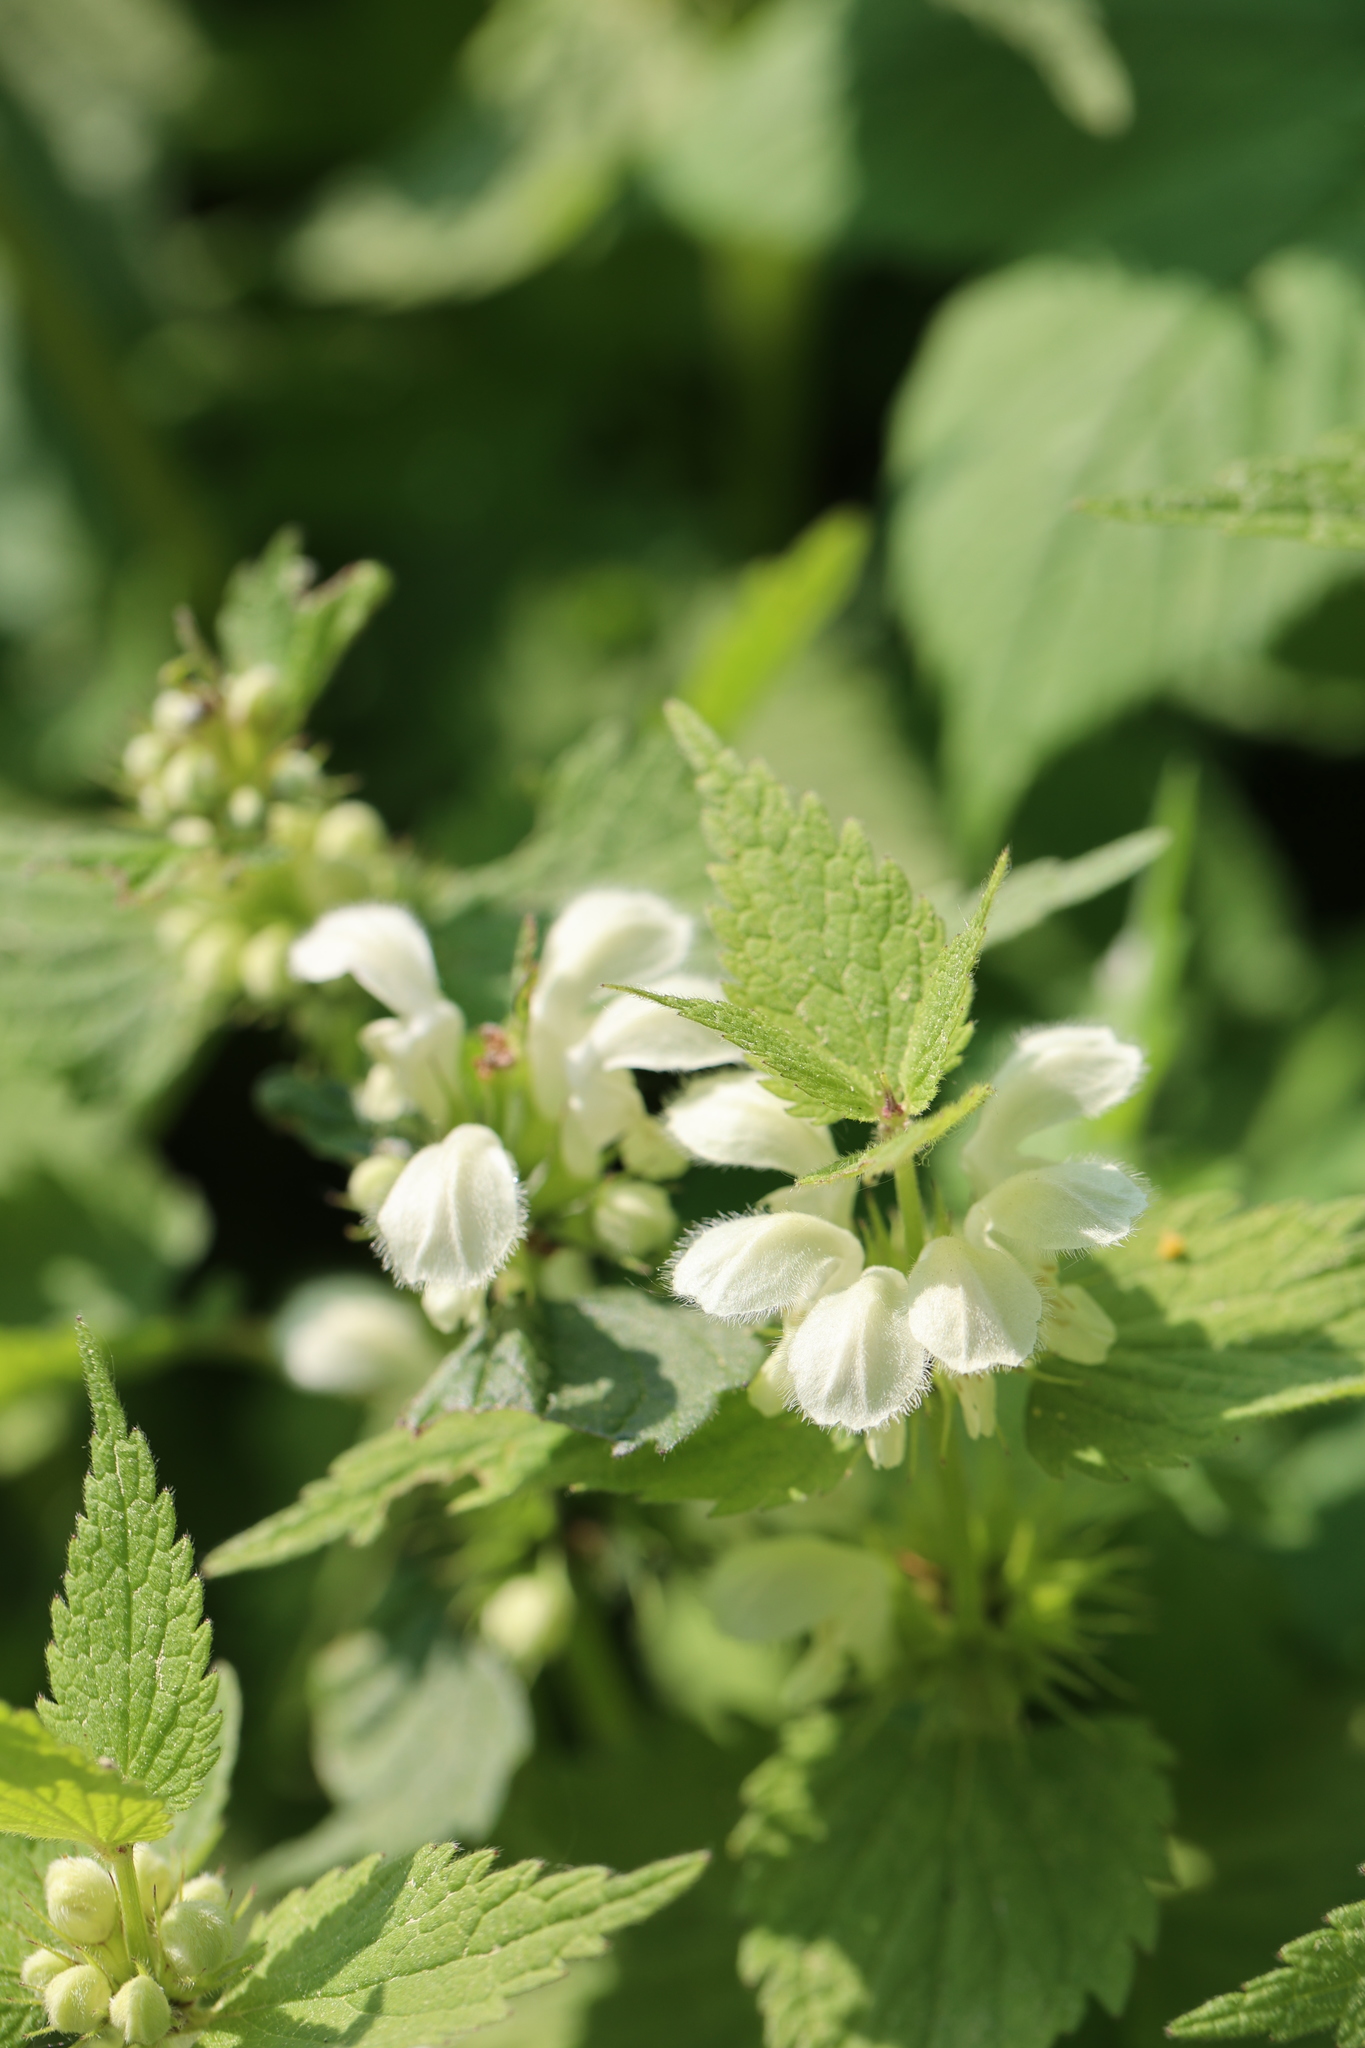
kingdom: Plantae
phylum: Tracheophyta
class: Magnoliopsida
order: Lamiales
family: Lamiaceae
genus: Lamium
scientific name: Lamium album
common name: White dead-nettle
